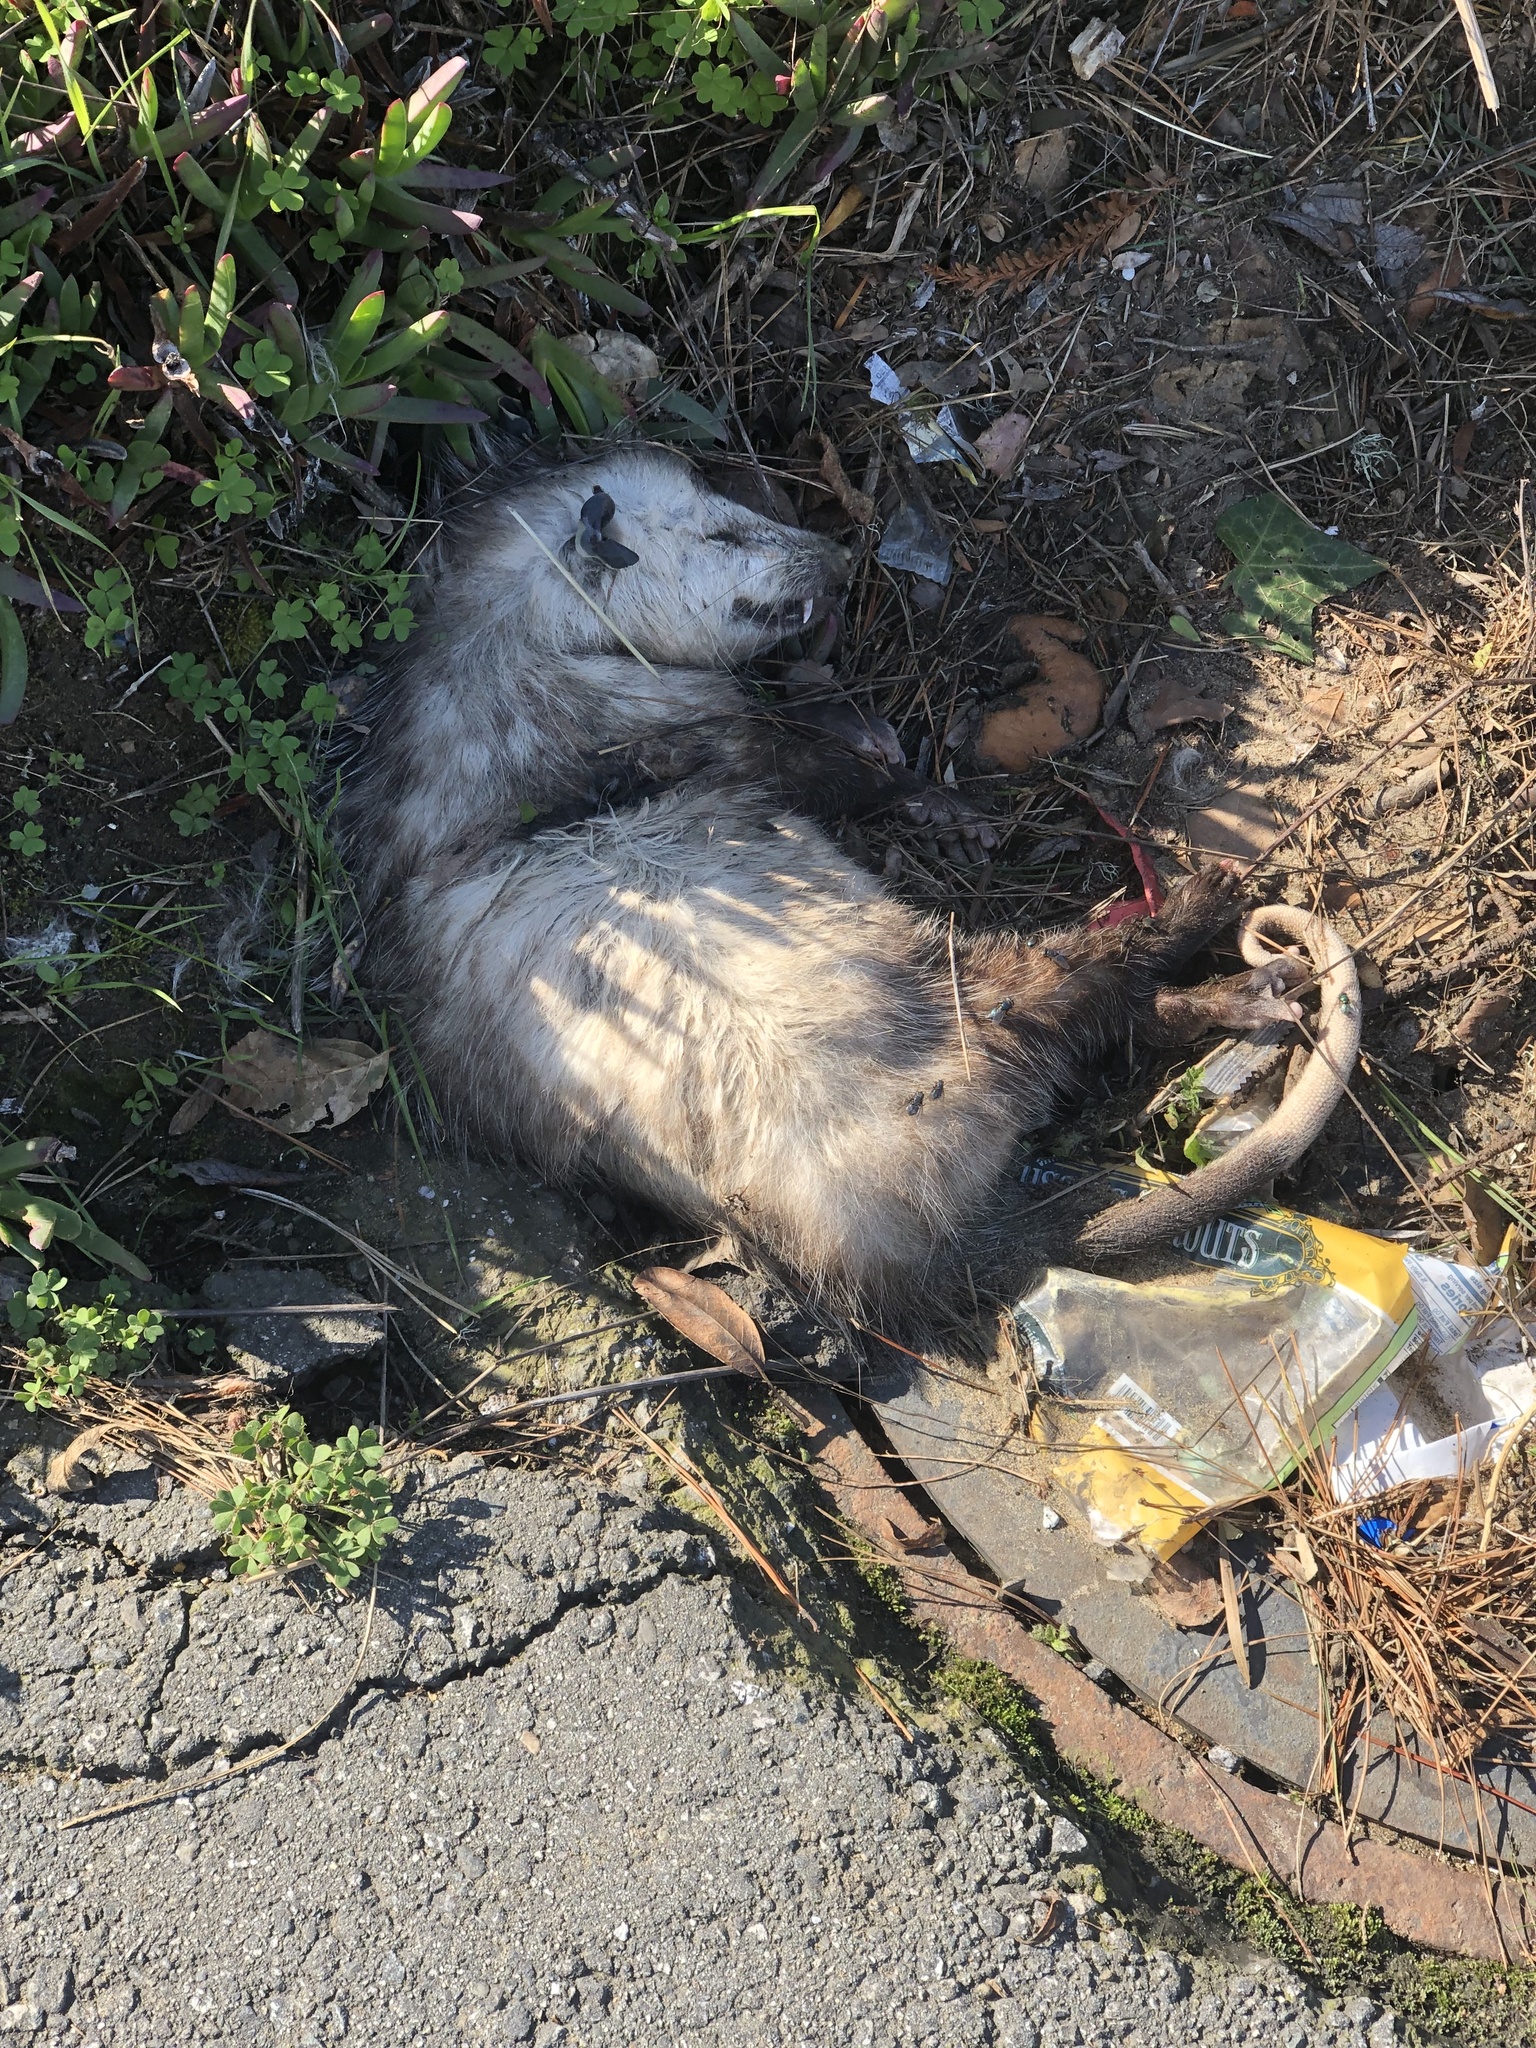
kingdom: Animalia
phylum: Chordata
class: Mammalia
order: Didelphimorphia
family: Didelphidae
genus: Didelphis
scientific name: Didelphis virginiana
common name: Virginia opossum
